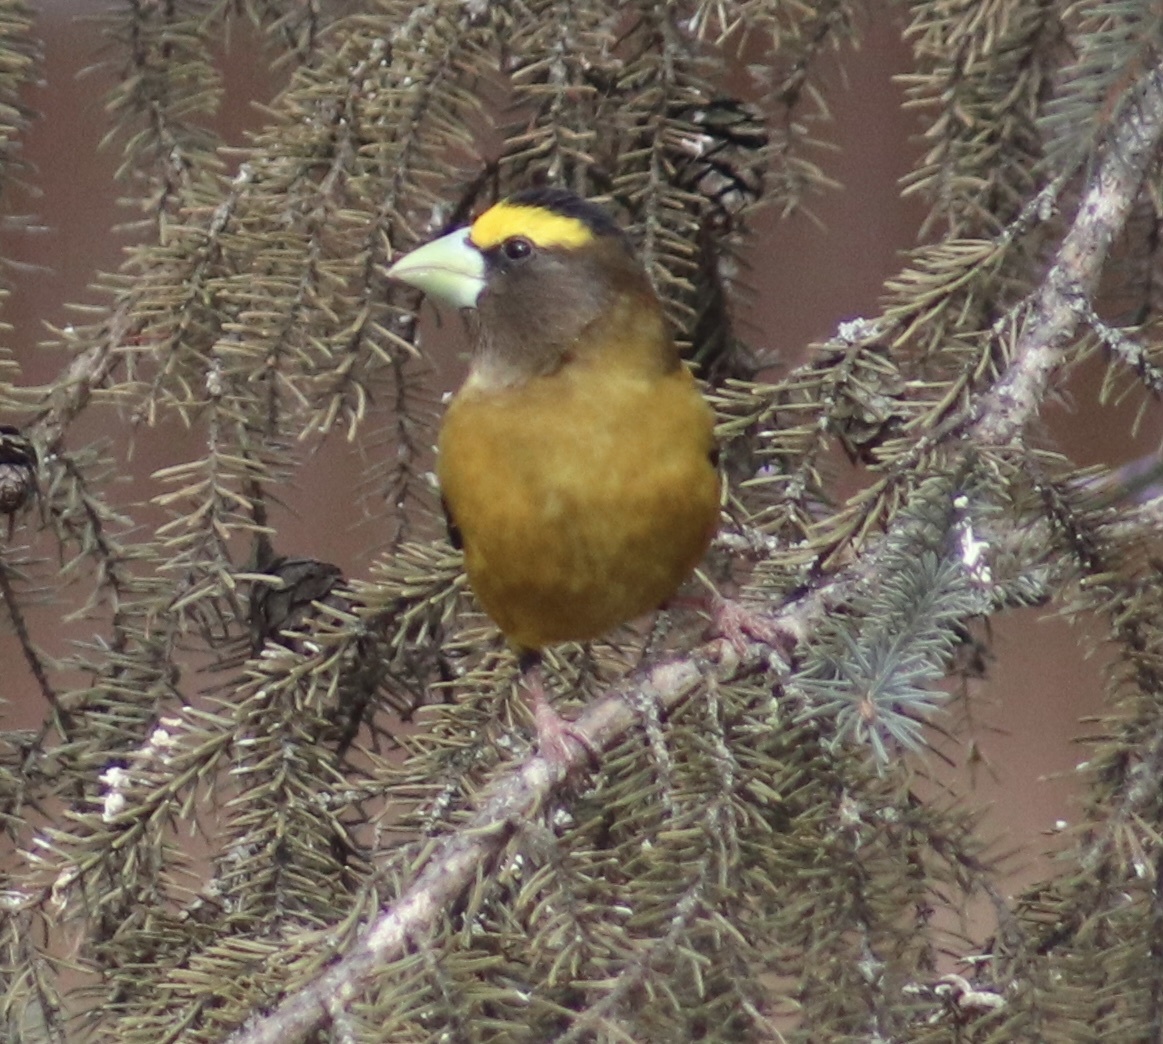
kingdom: Animalia
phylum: Chordata
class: Aves
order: Passeriformes
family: Fringillidae
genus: Hesperiphona
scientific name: Hesperiphona vespertina
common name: Evening grosbeak
